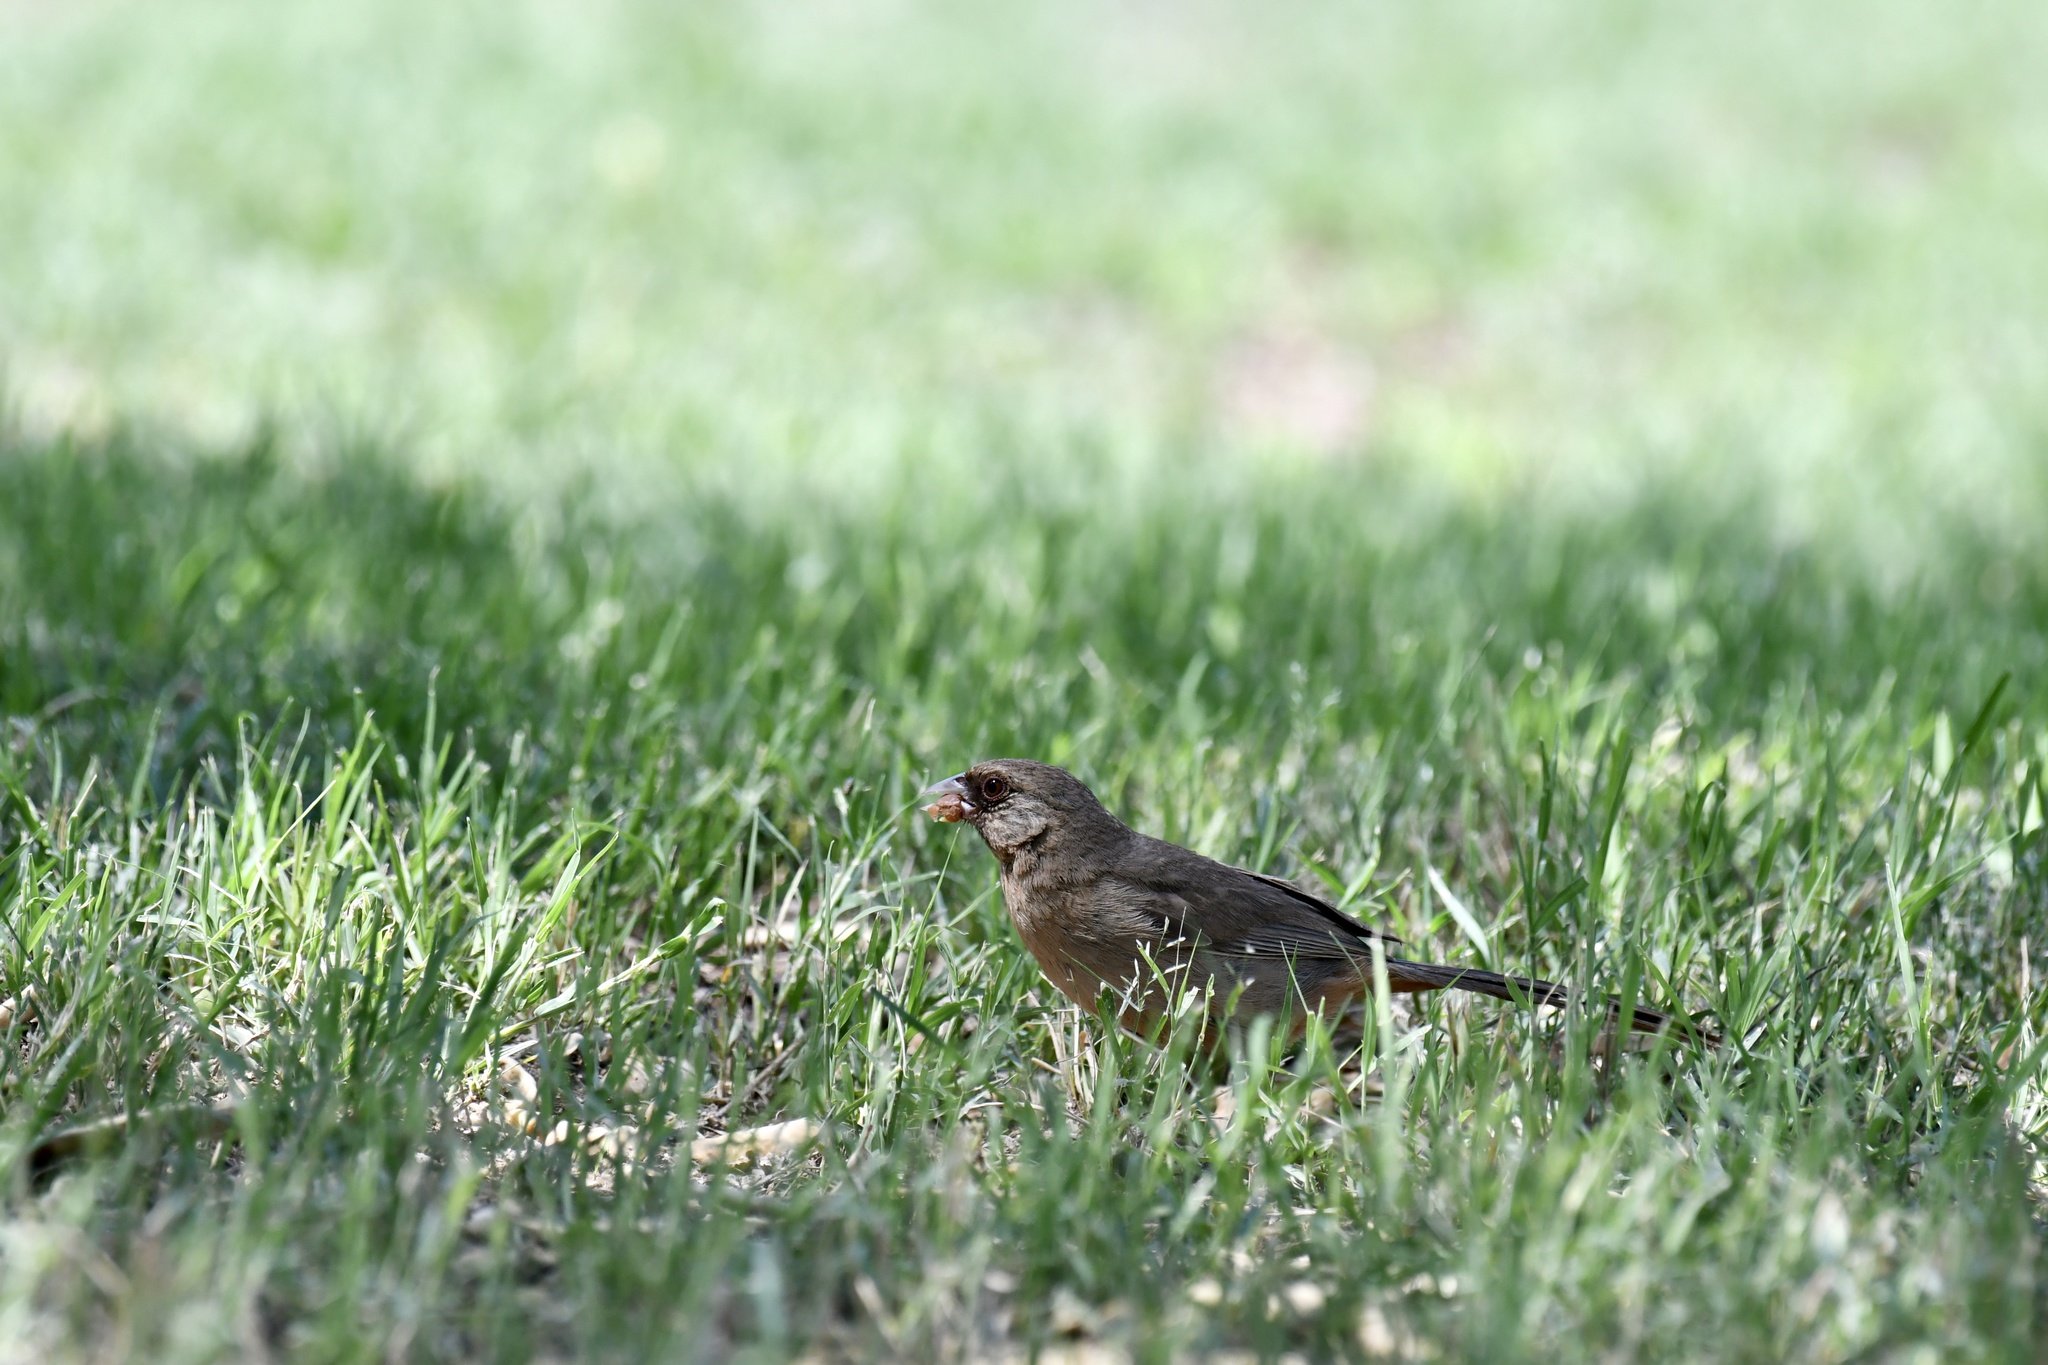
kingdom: Animalia
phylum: Chordata
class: Aves
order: Passeriformes
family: Passerellidae
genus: Melozone
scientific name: Melozone aberti
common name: Abert's towhee
